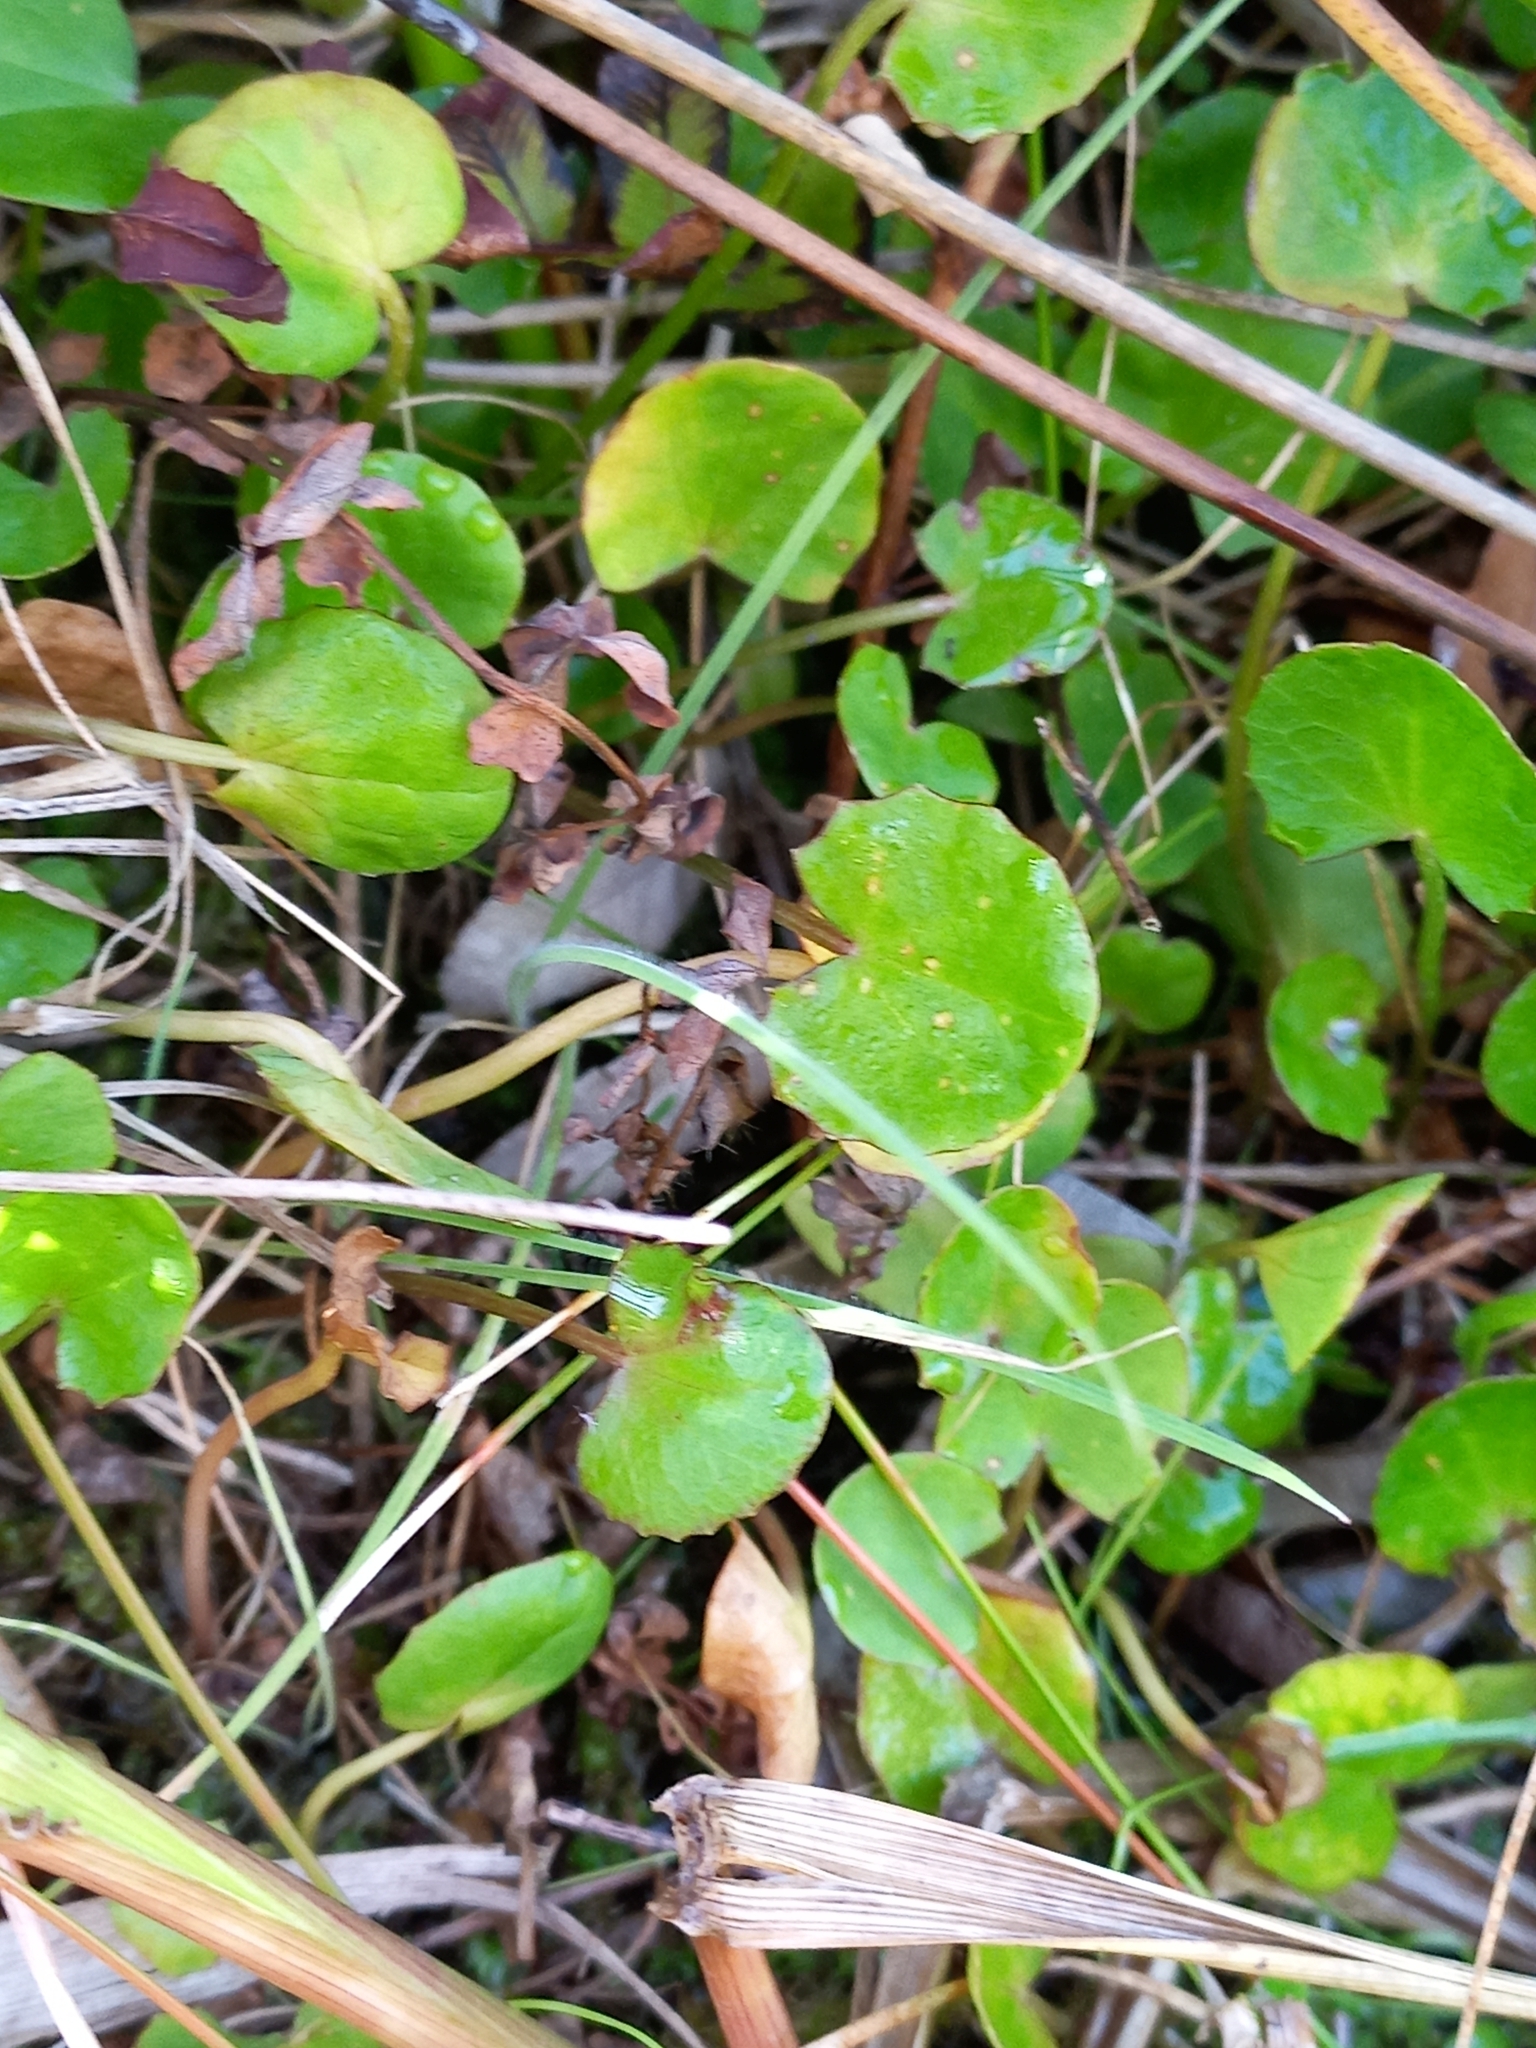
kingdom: Plantae
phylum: Tracheophyta
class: Magnoliopsida
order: Apiales
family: Apiaceae
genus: Centella
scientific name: Centella uniflora
